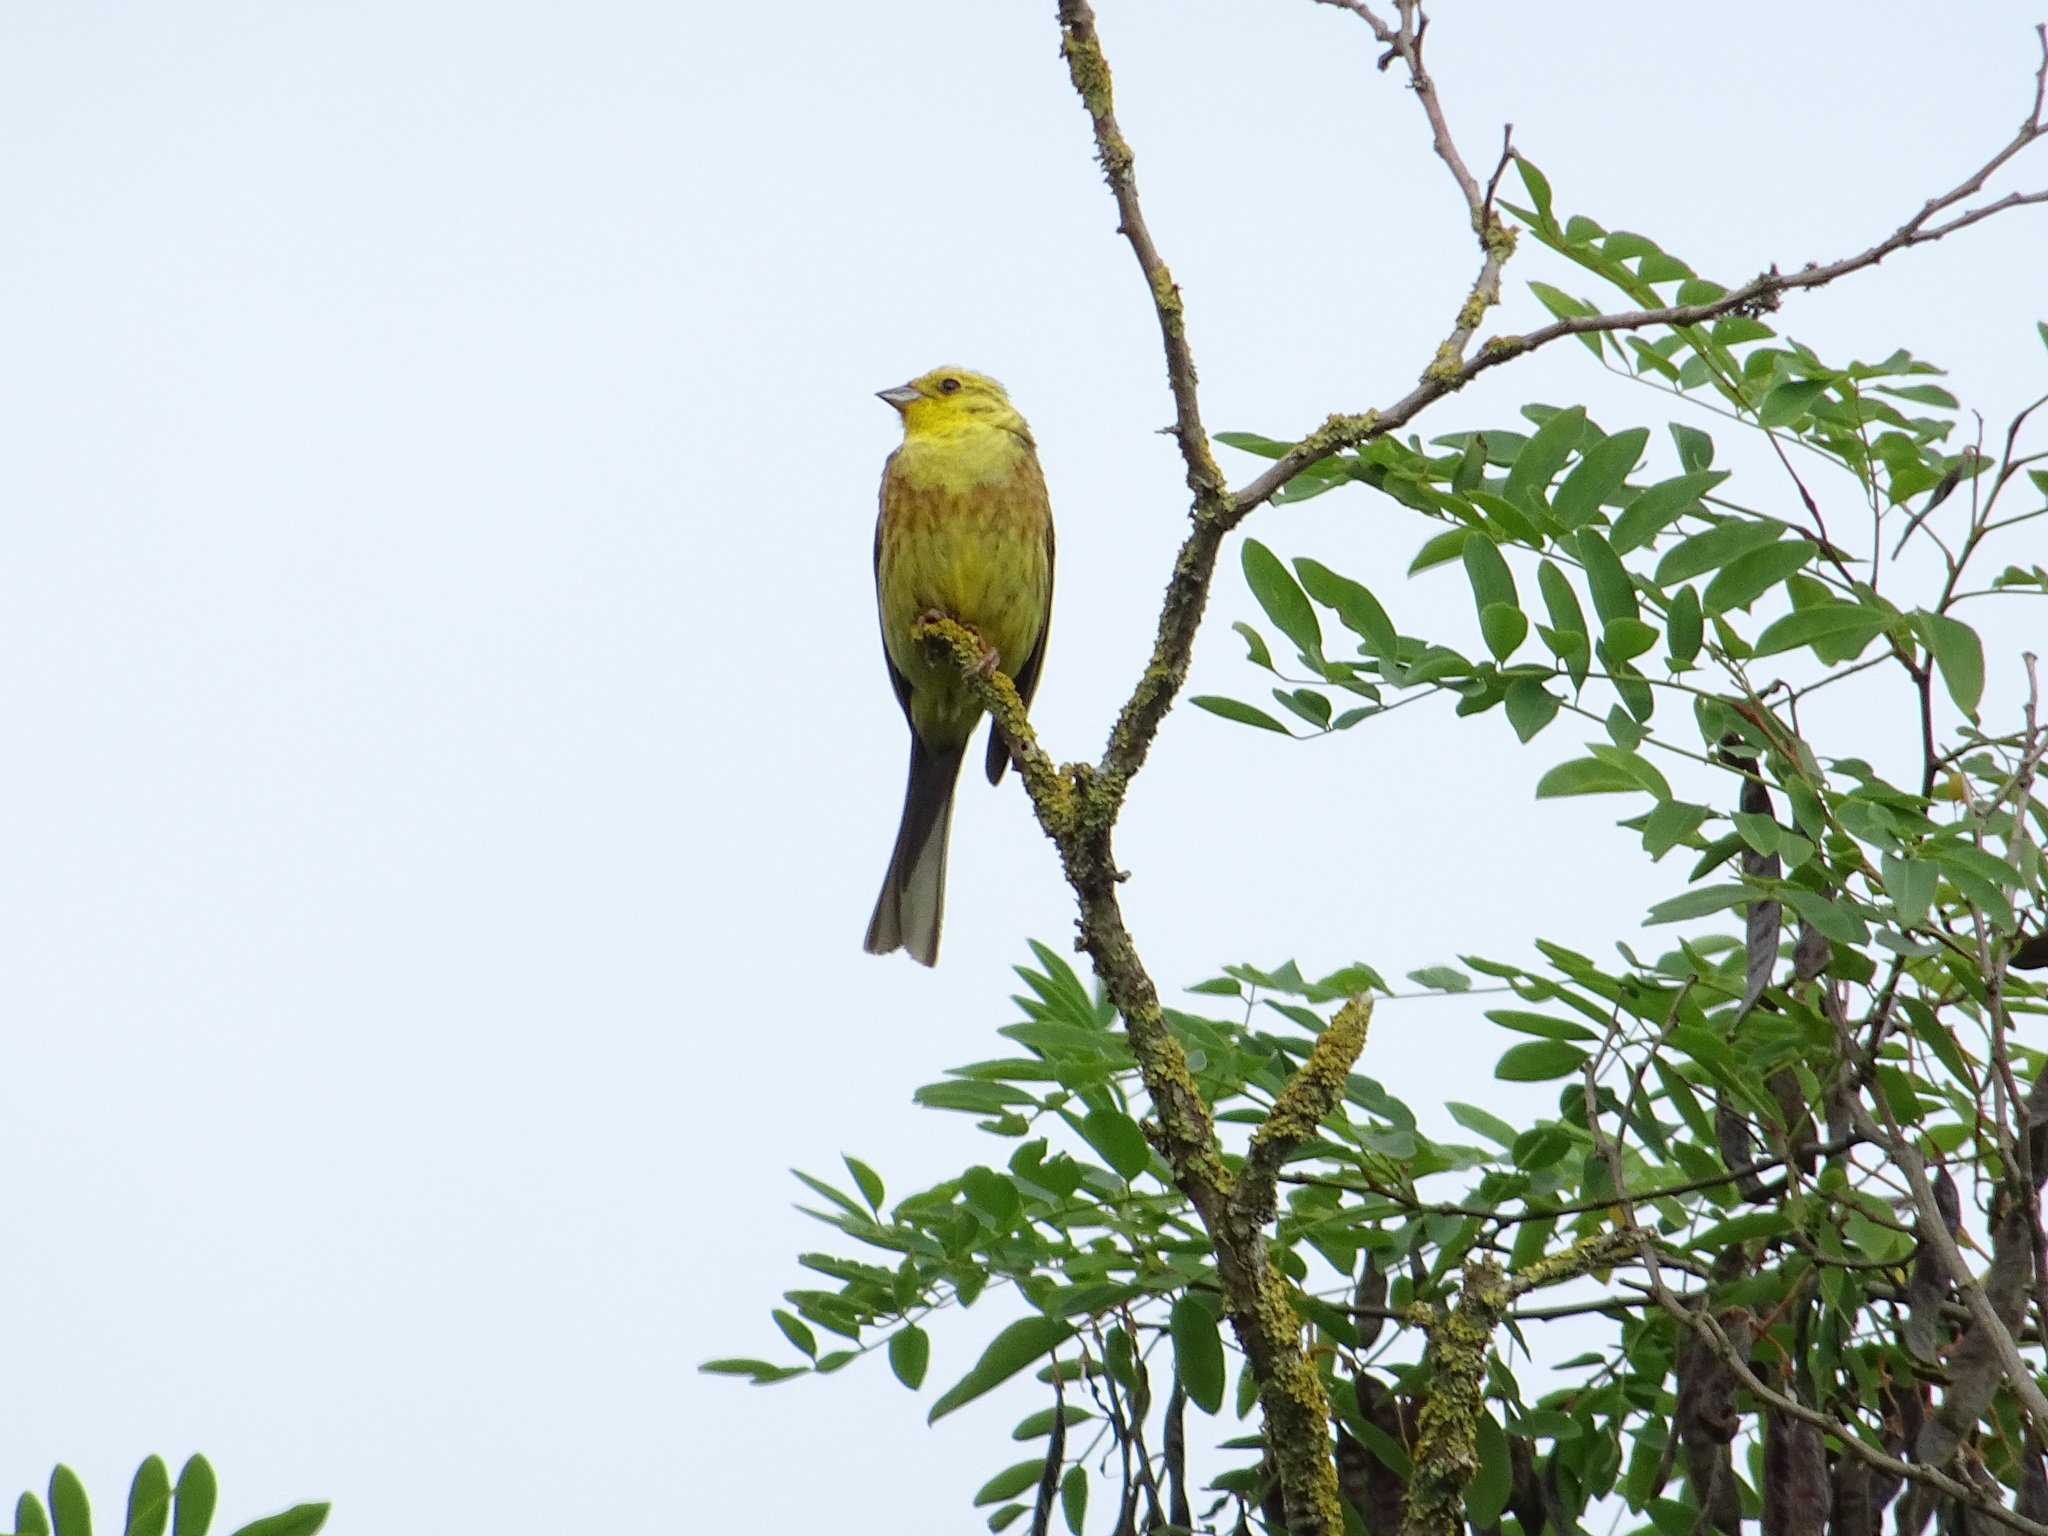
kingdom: Animalia
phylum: Chordata
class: Aves
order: Passeriformes
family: Emberizidae
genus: Emberiza
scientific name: Emberiza citrinella
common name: Yellowhammer
